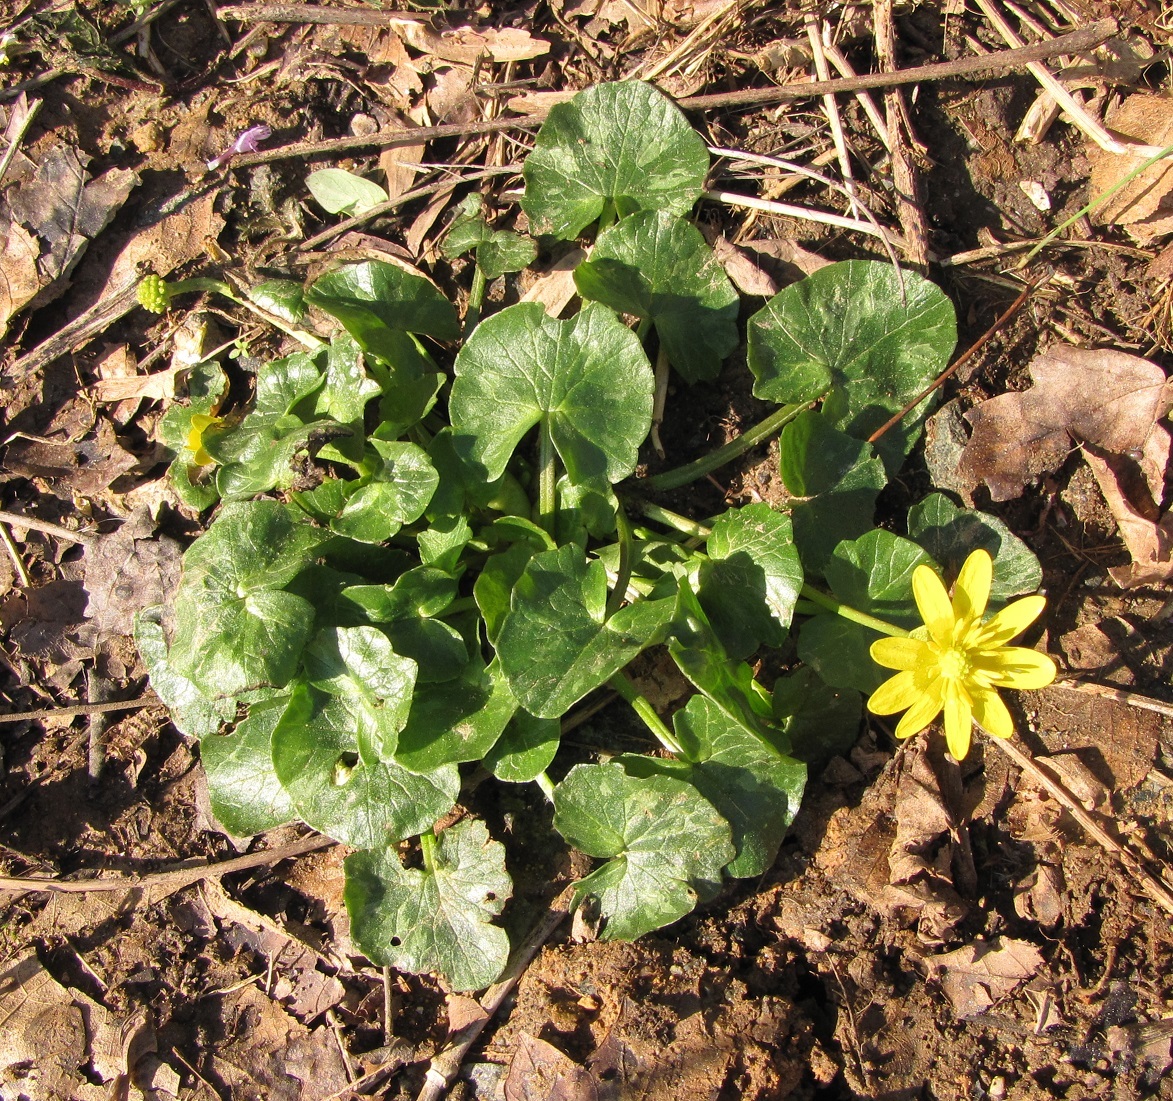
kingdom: Plantae
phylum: Tracheophyta
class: Magnoliopsida
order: Ranunculales
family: Ranunculaceae
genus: Ficaria
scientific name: Ficaria verna
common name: Lesser celandine
